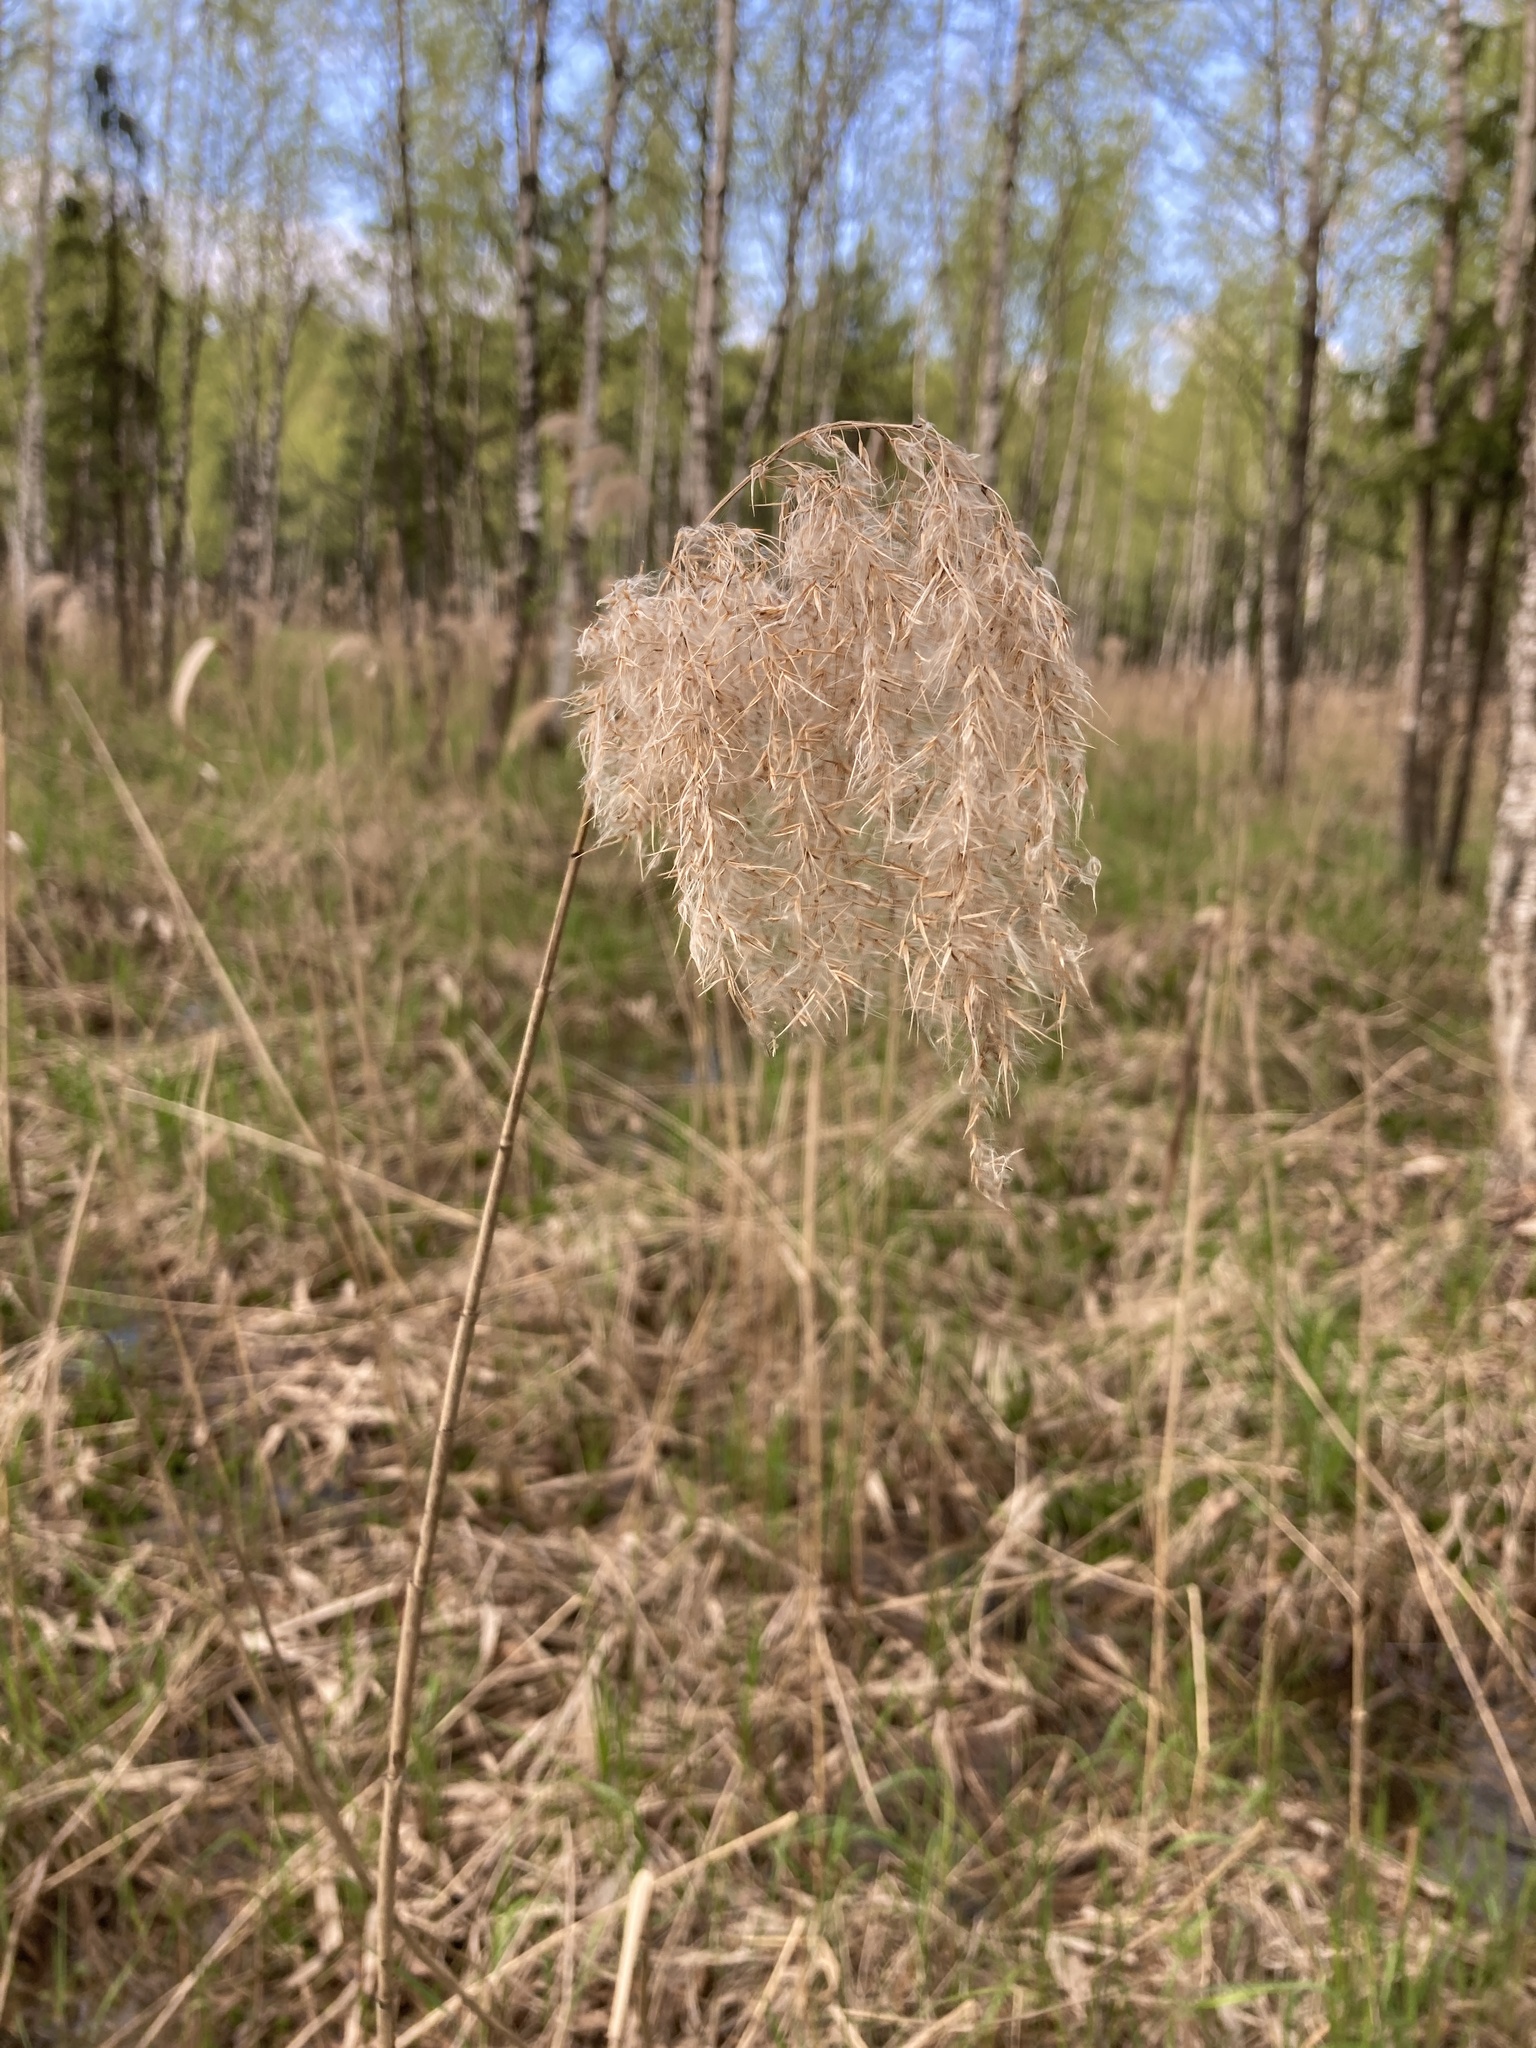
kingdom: Plantae
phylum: Tracheophyta
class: Liliopsida
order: Poales
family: Poaceae
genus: Phragmites
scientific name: Phragmites australis
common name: Common reed
